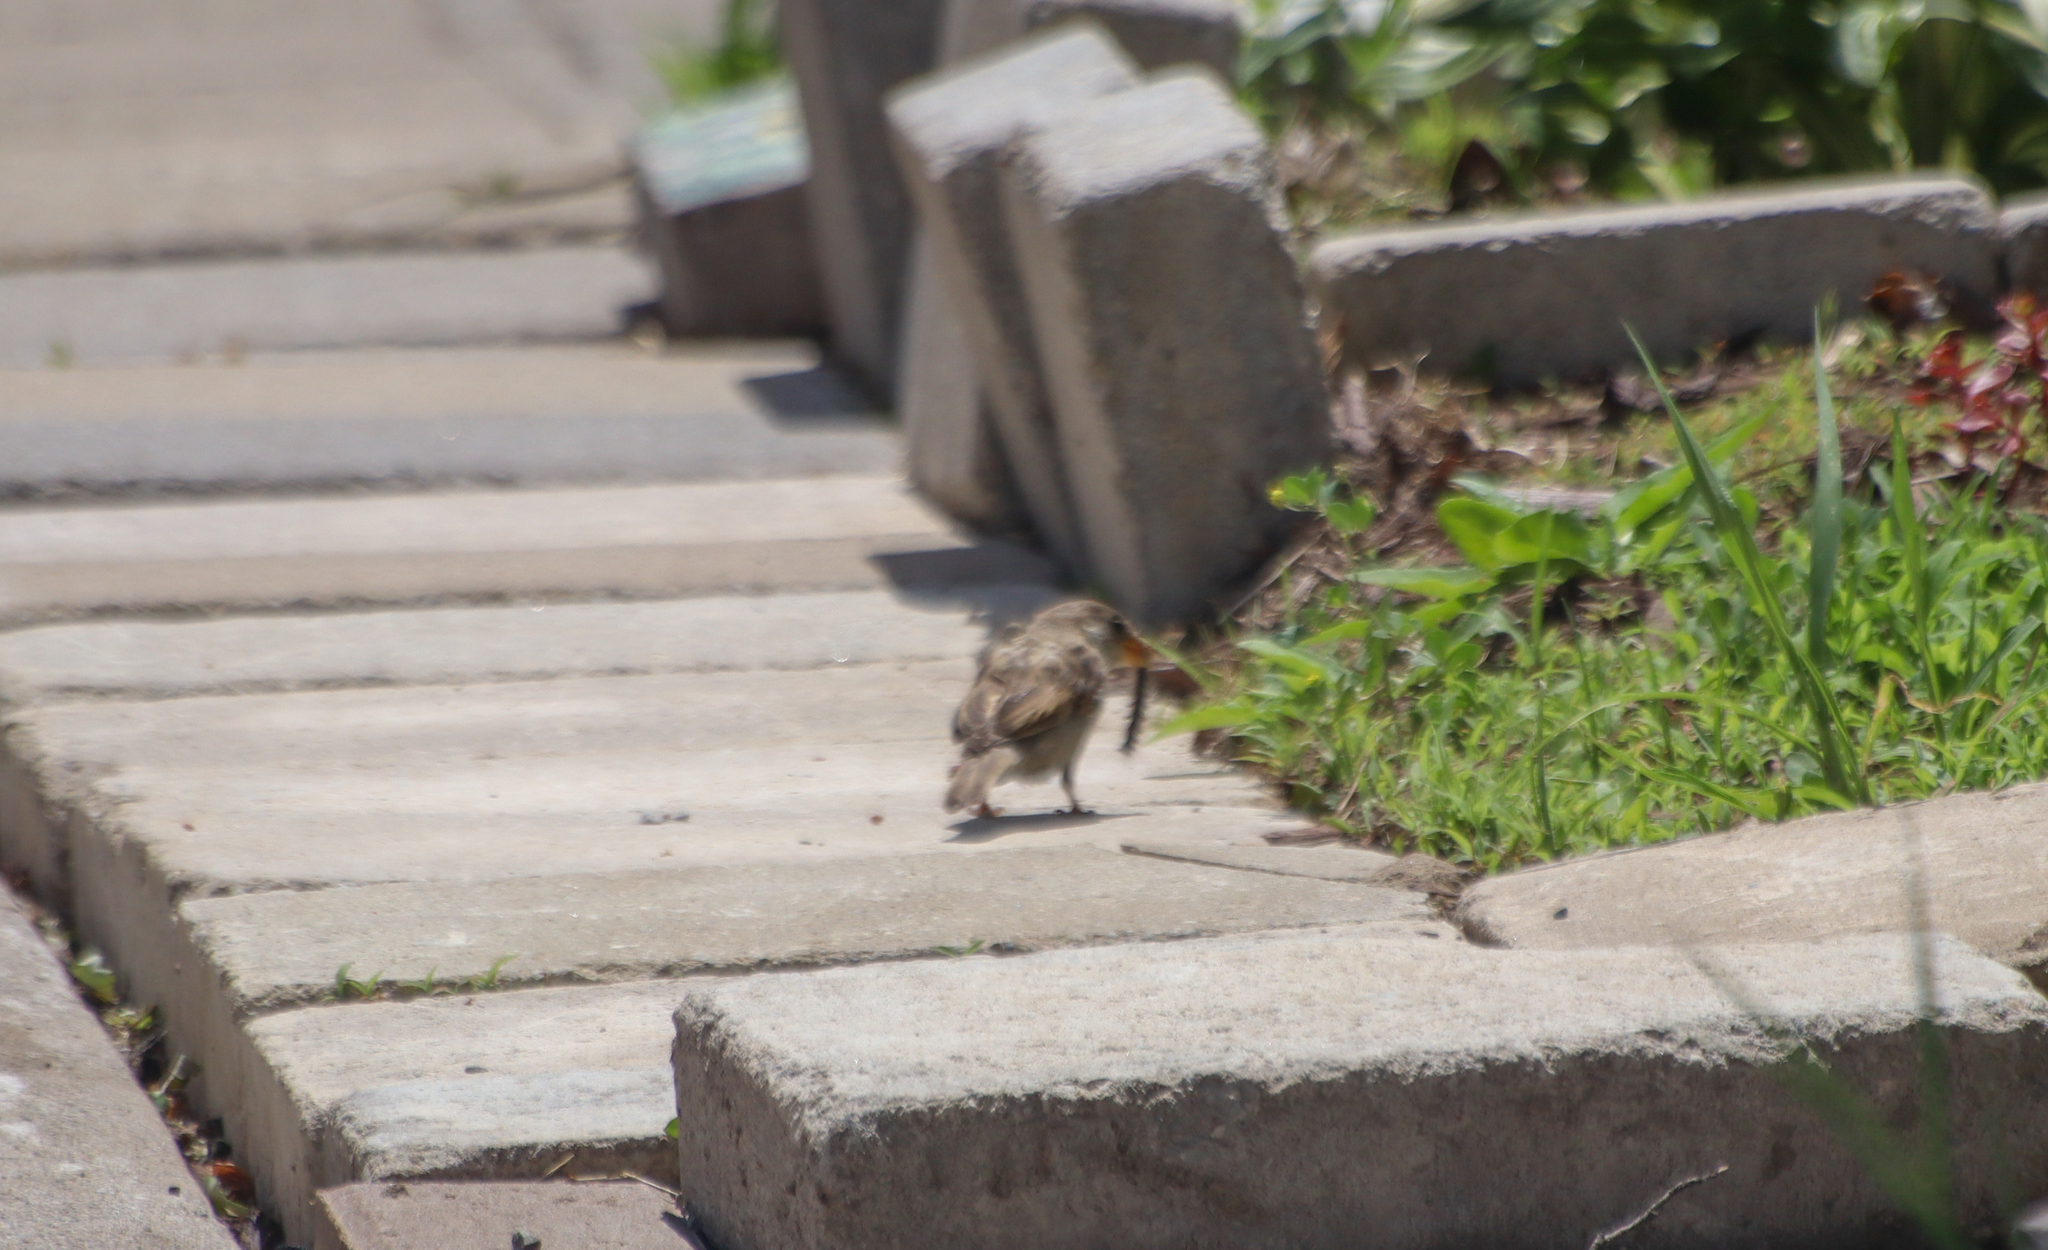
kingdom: Animalia
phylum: Chordata
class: Aves
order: Passeriformes
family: Passeridae
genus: Passer
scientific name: Passer domesticus
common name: House sparrow
